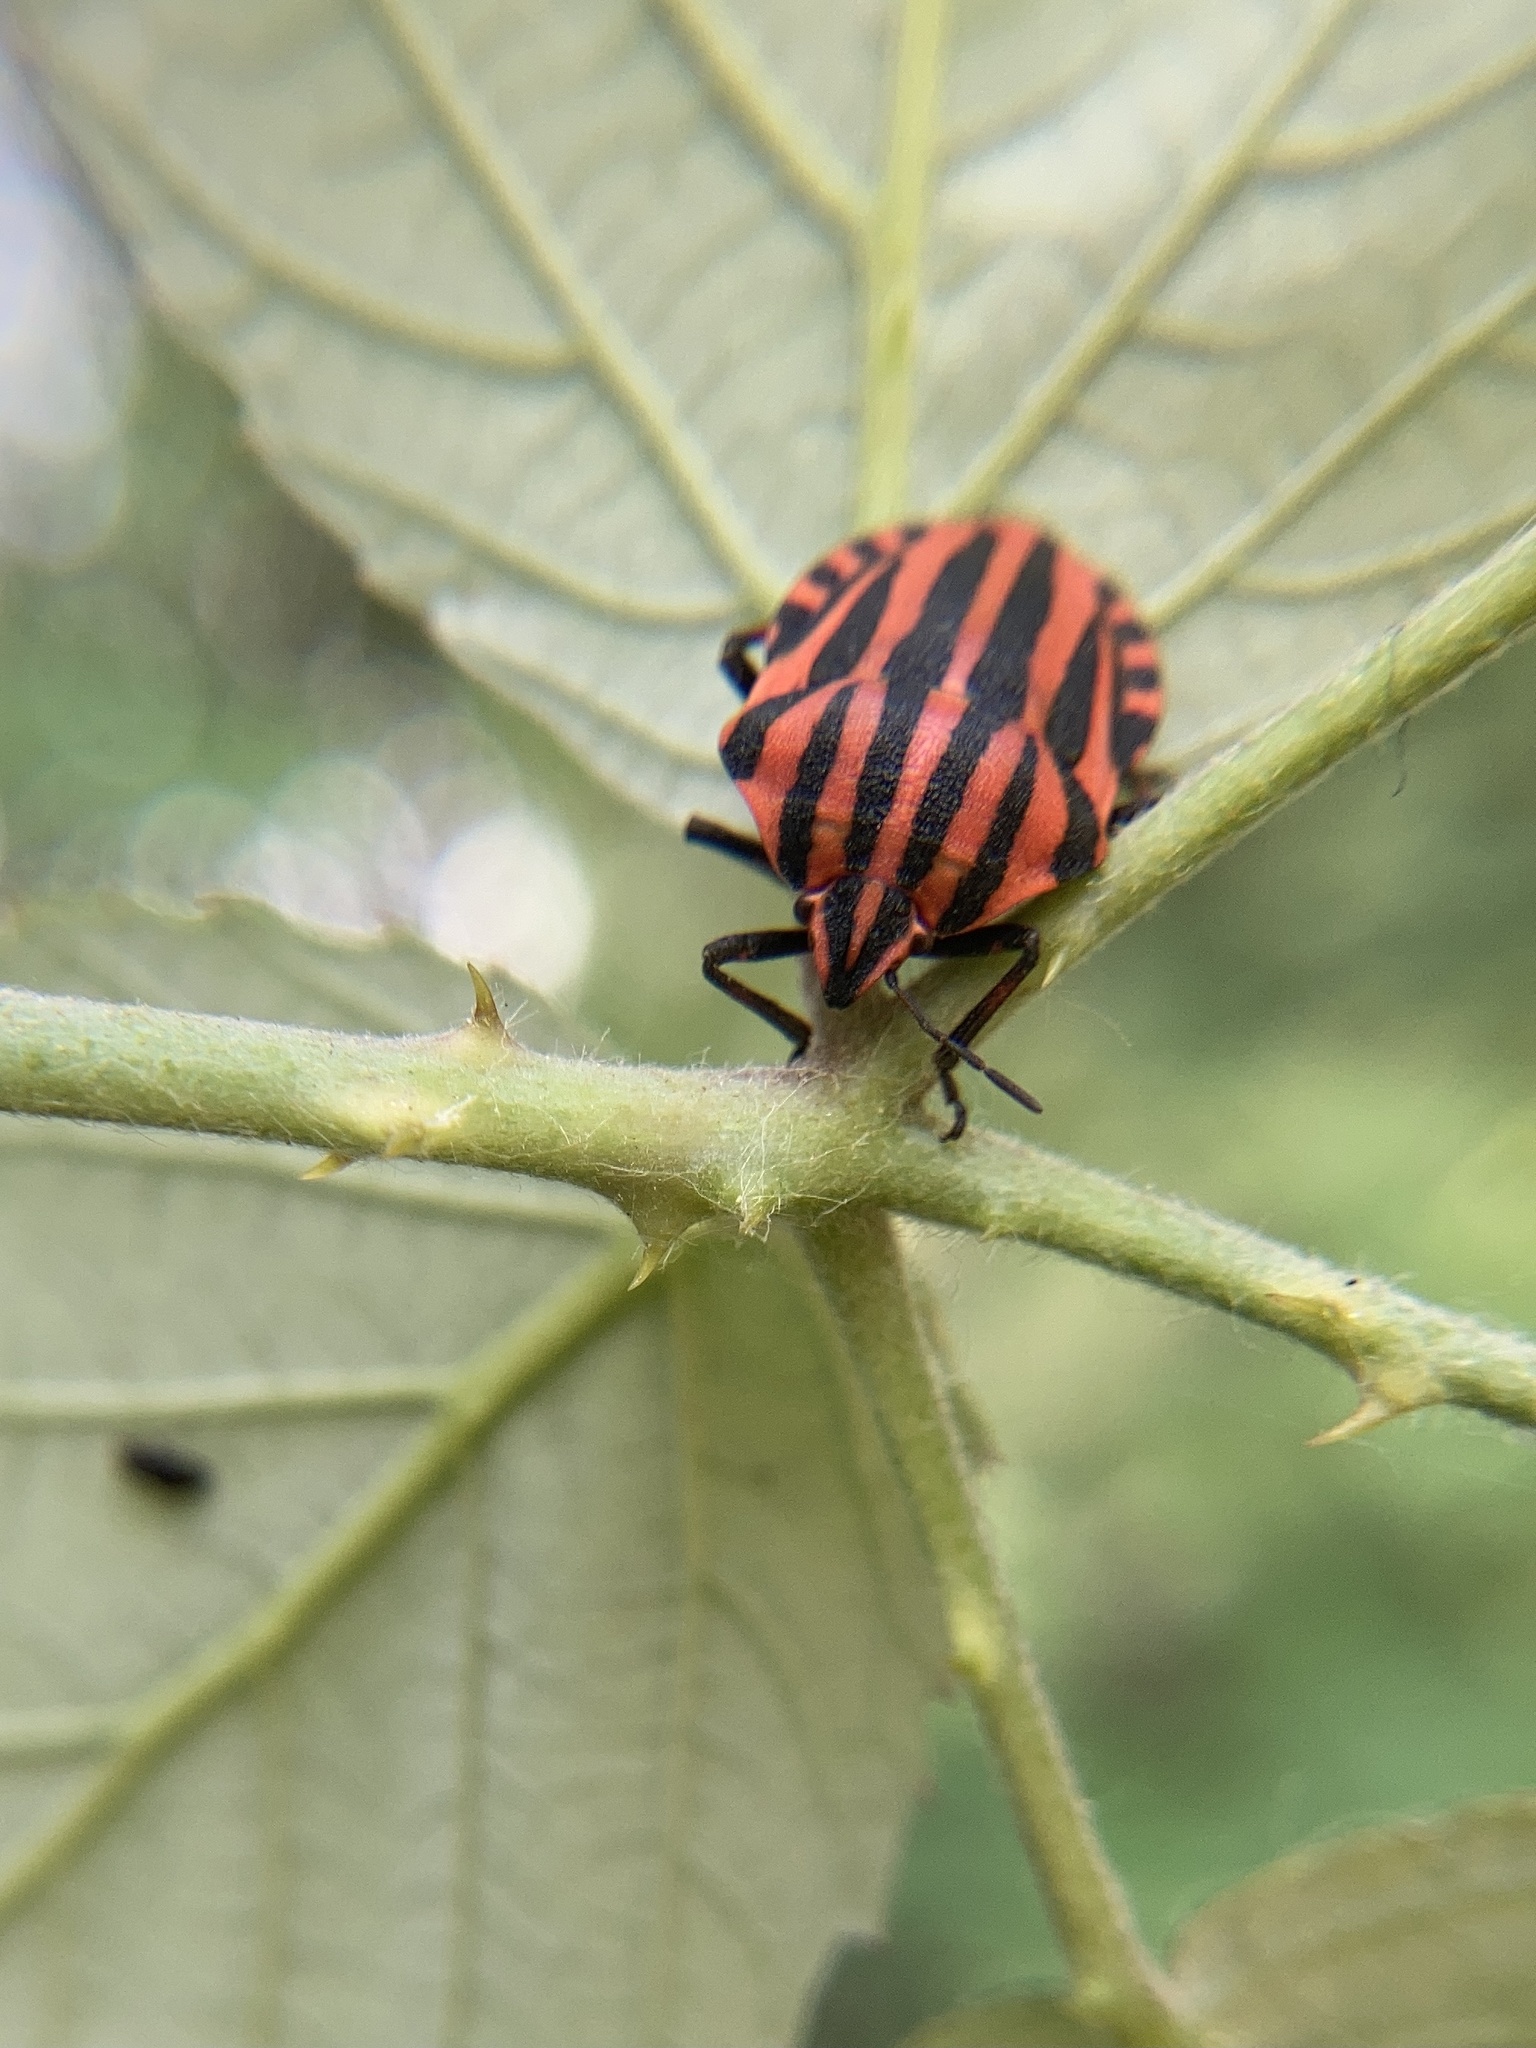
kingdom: Animalia
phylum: Arthropoda
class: Insecta
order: Hemiptera
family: Pentatomidae
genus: Graphosoma
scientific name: Graphosoma italicum
